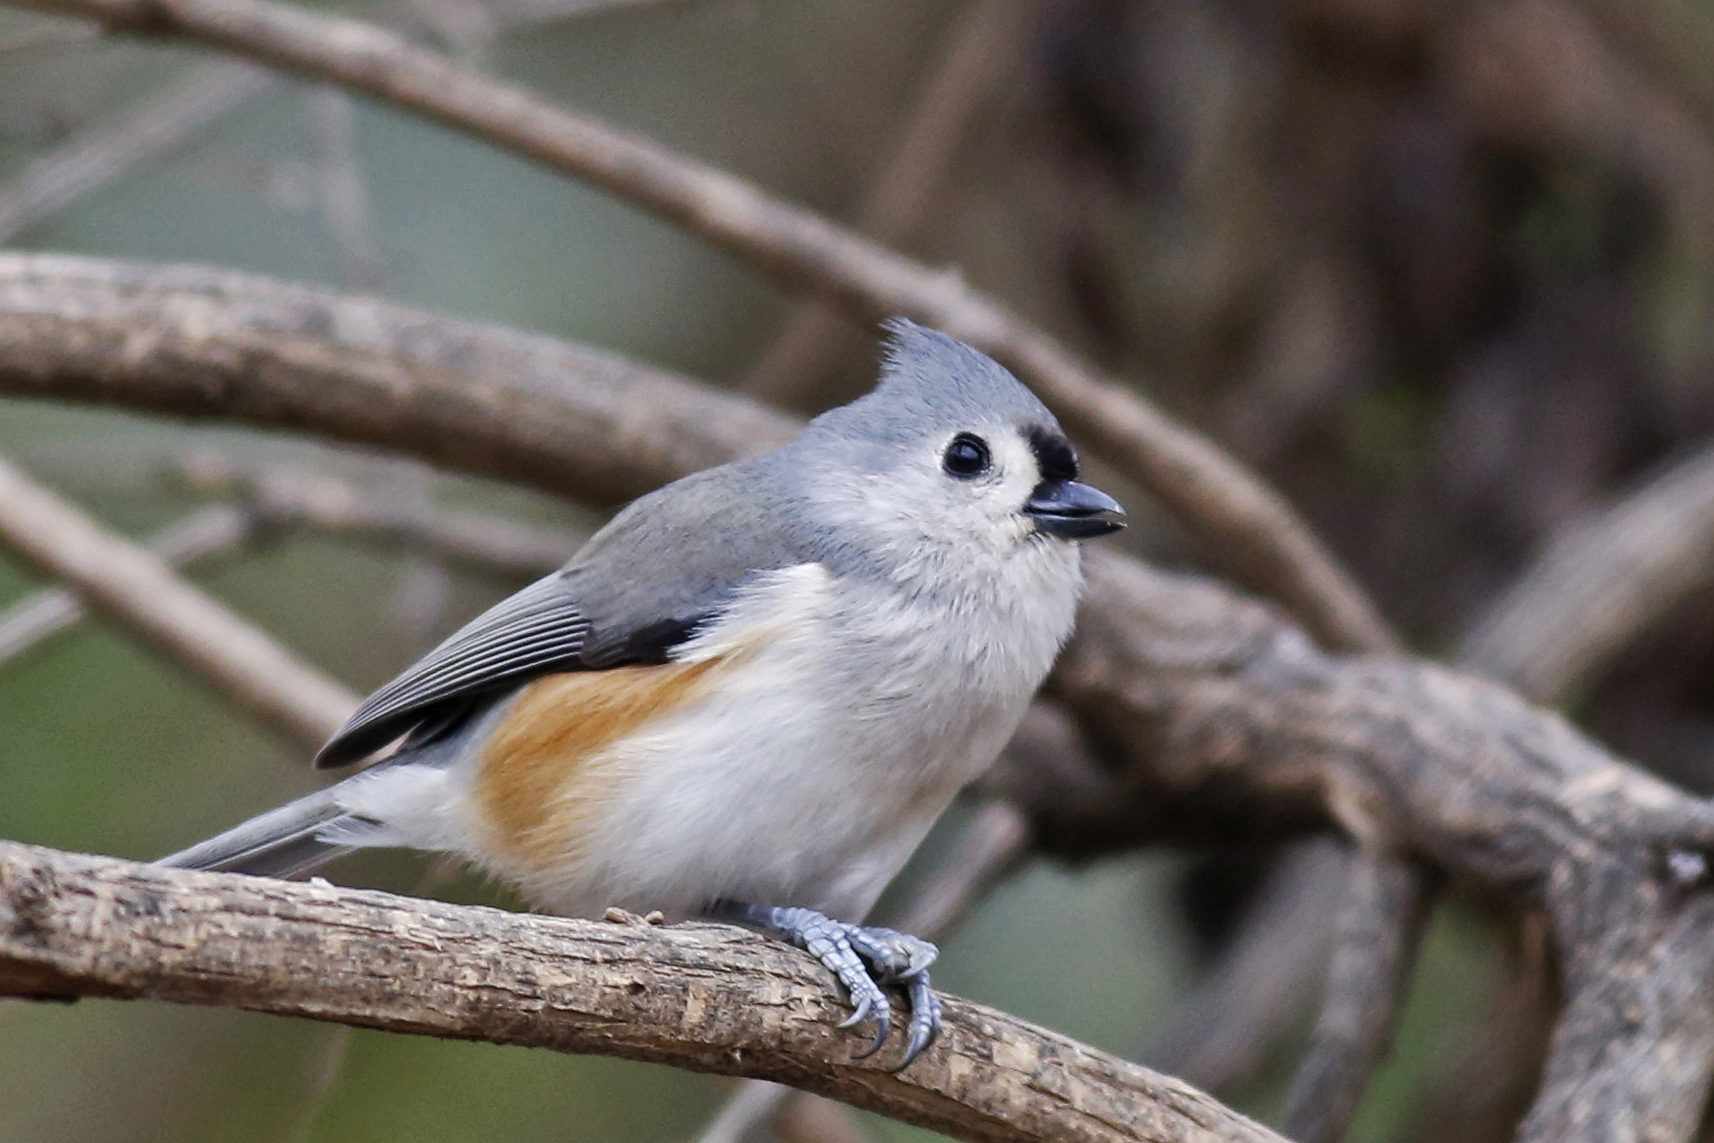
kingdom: Animalia
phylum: Chordata
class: Aves
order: Passeriformes
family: Paridae
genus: Baeolophus
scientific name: Baeolophus bicolor
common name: Tufted titmouse
